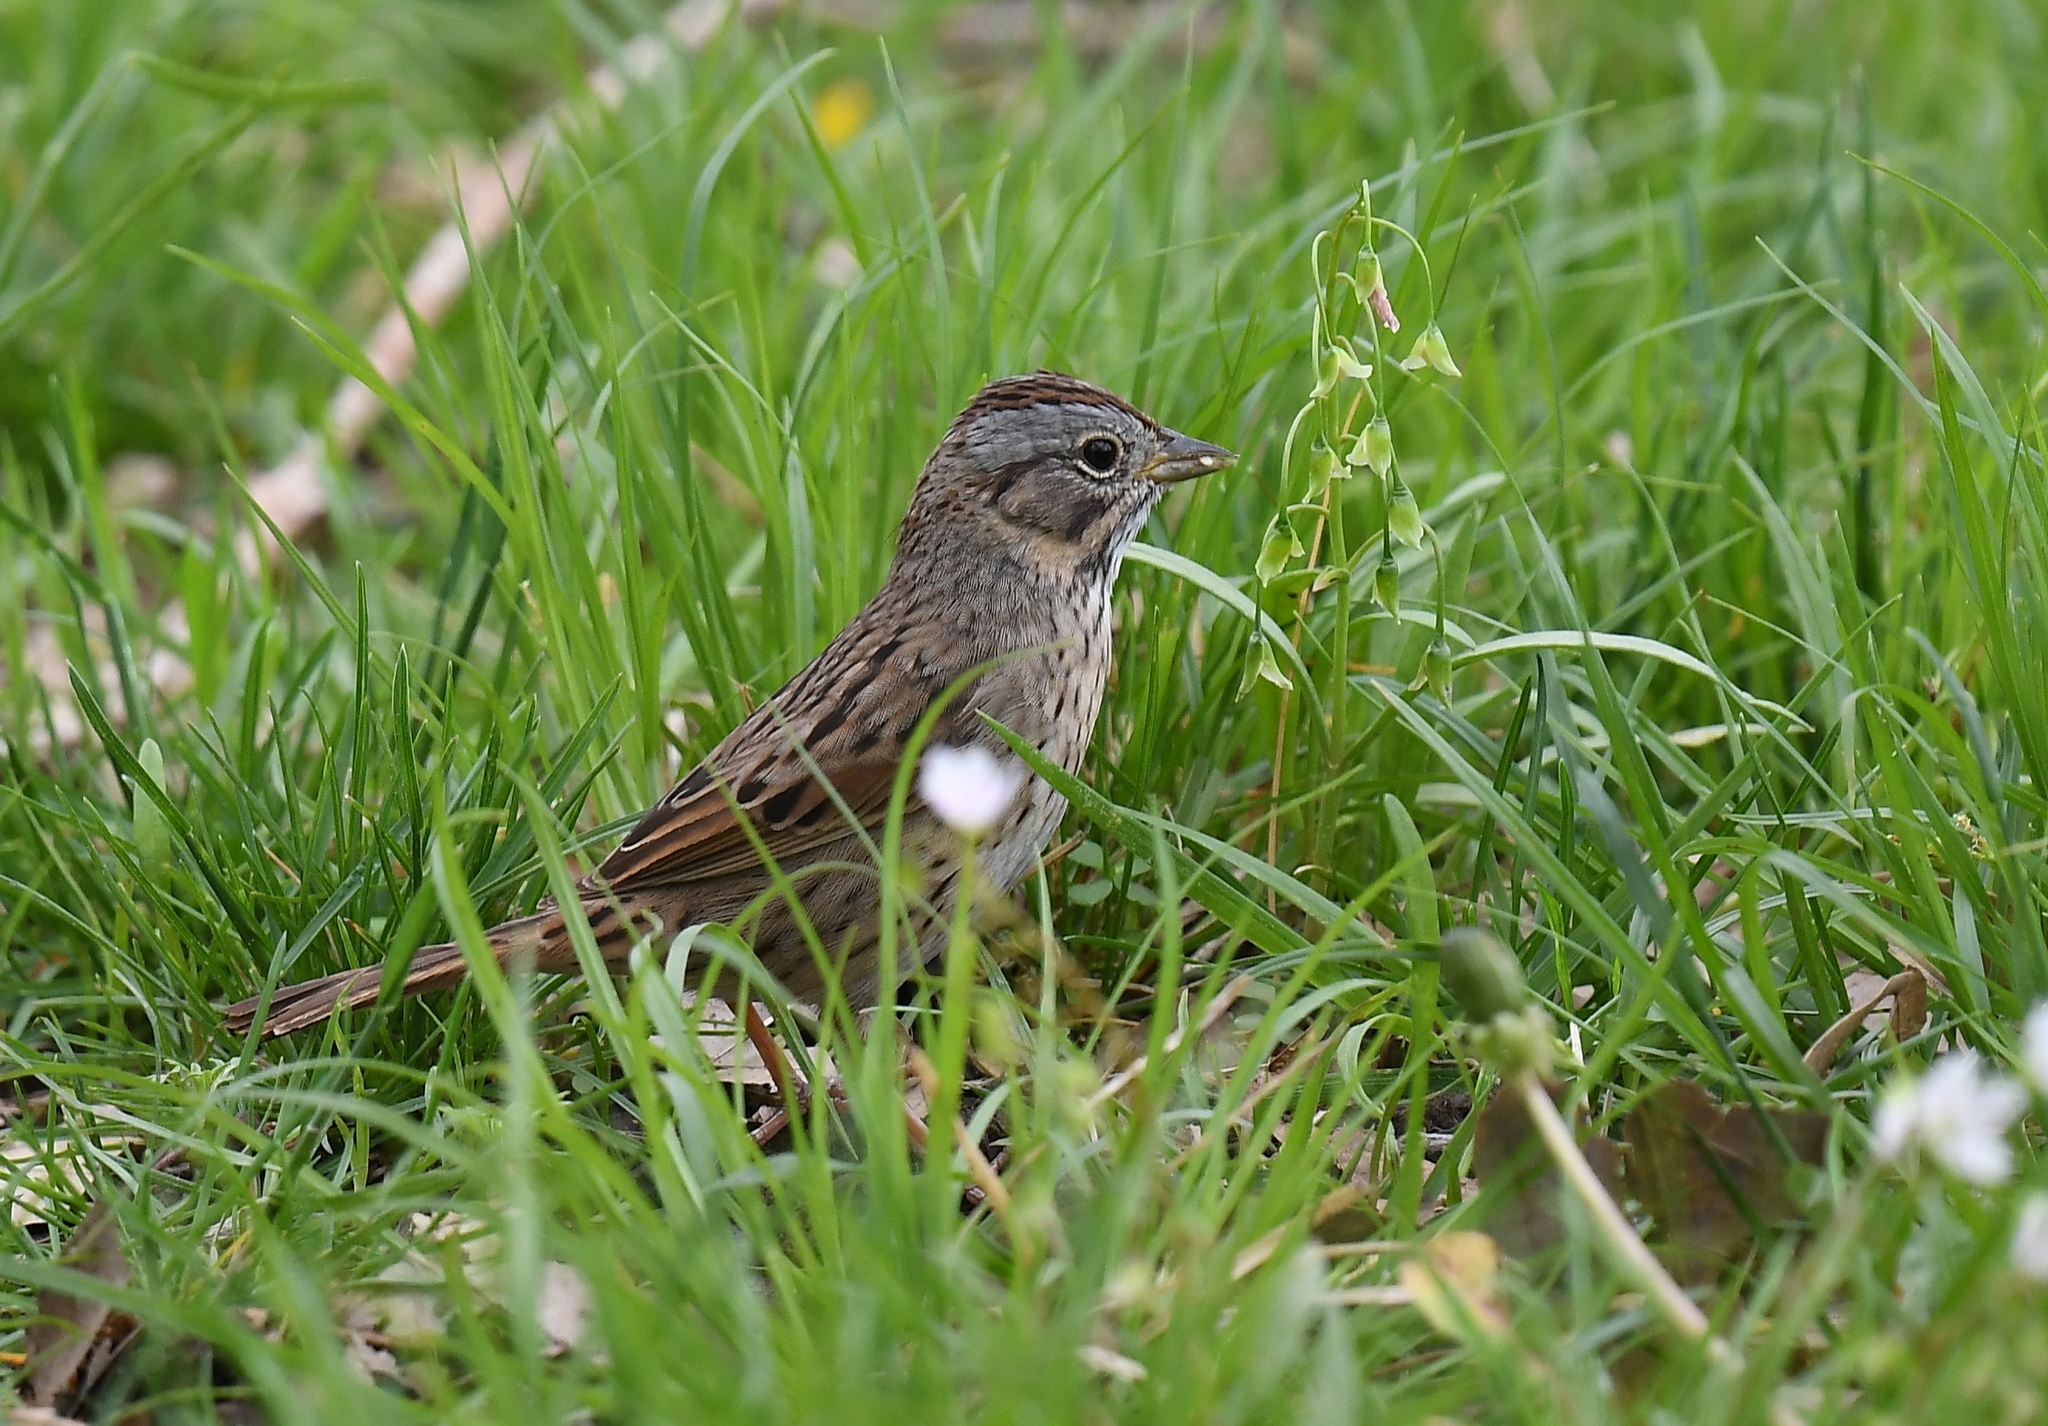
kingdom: Animalia
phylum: Chordata
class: Aves
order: Passeriformes
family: Passerellidae
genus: Melospiza
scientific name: Melospiza lincolnii
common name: Lincoln's sparrow
